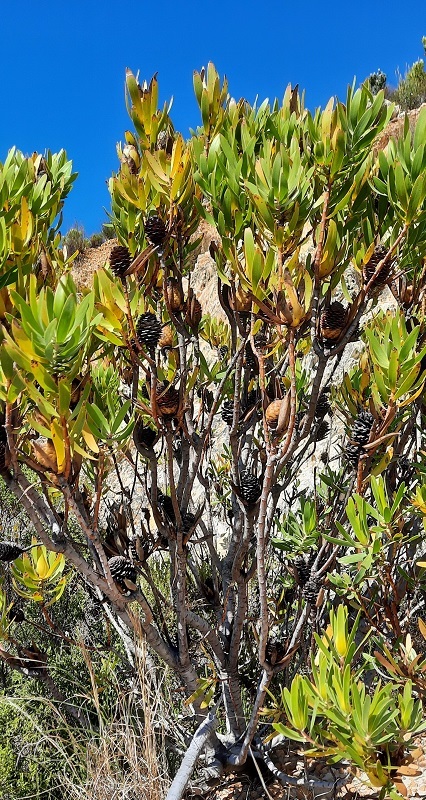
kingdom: Plantae
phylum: Tracheophyta
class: Magnoliopsida
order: Proteales
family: Proteaceae
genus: Leucadendron
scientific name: Leucadendron laureolum
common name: Golden sunshinebush
